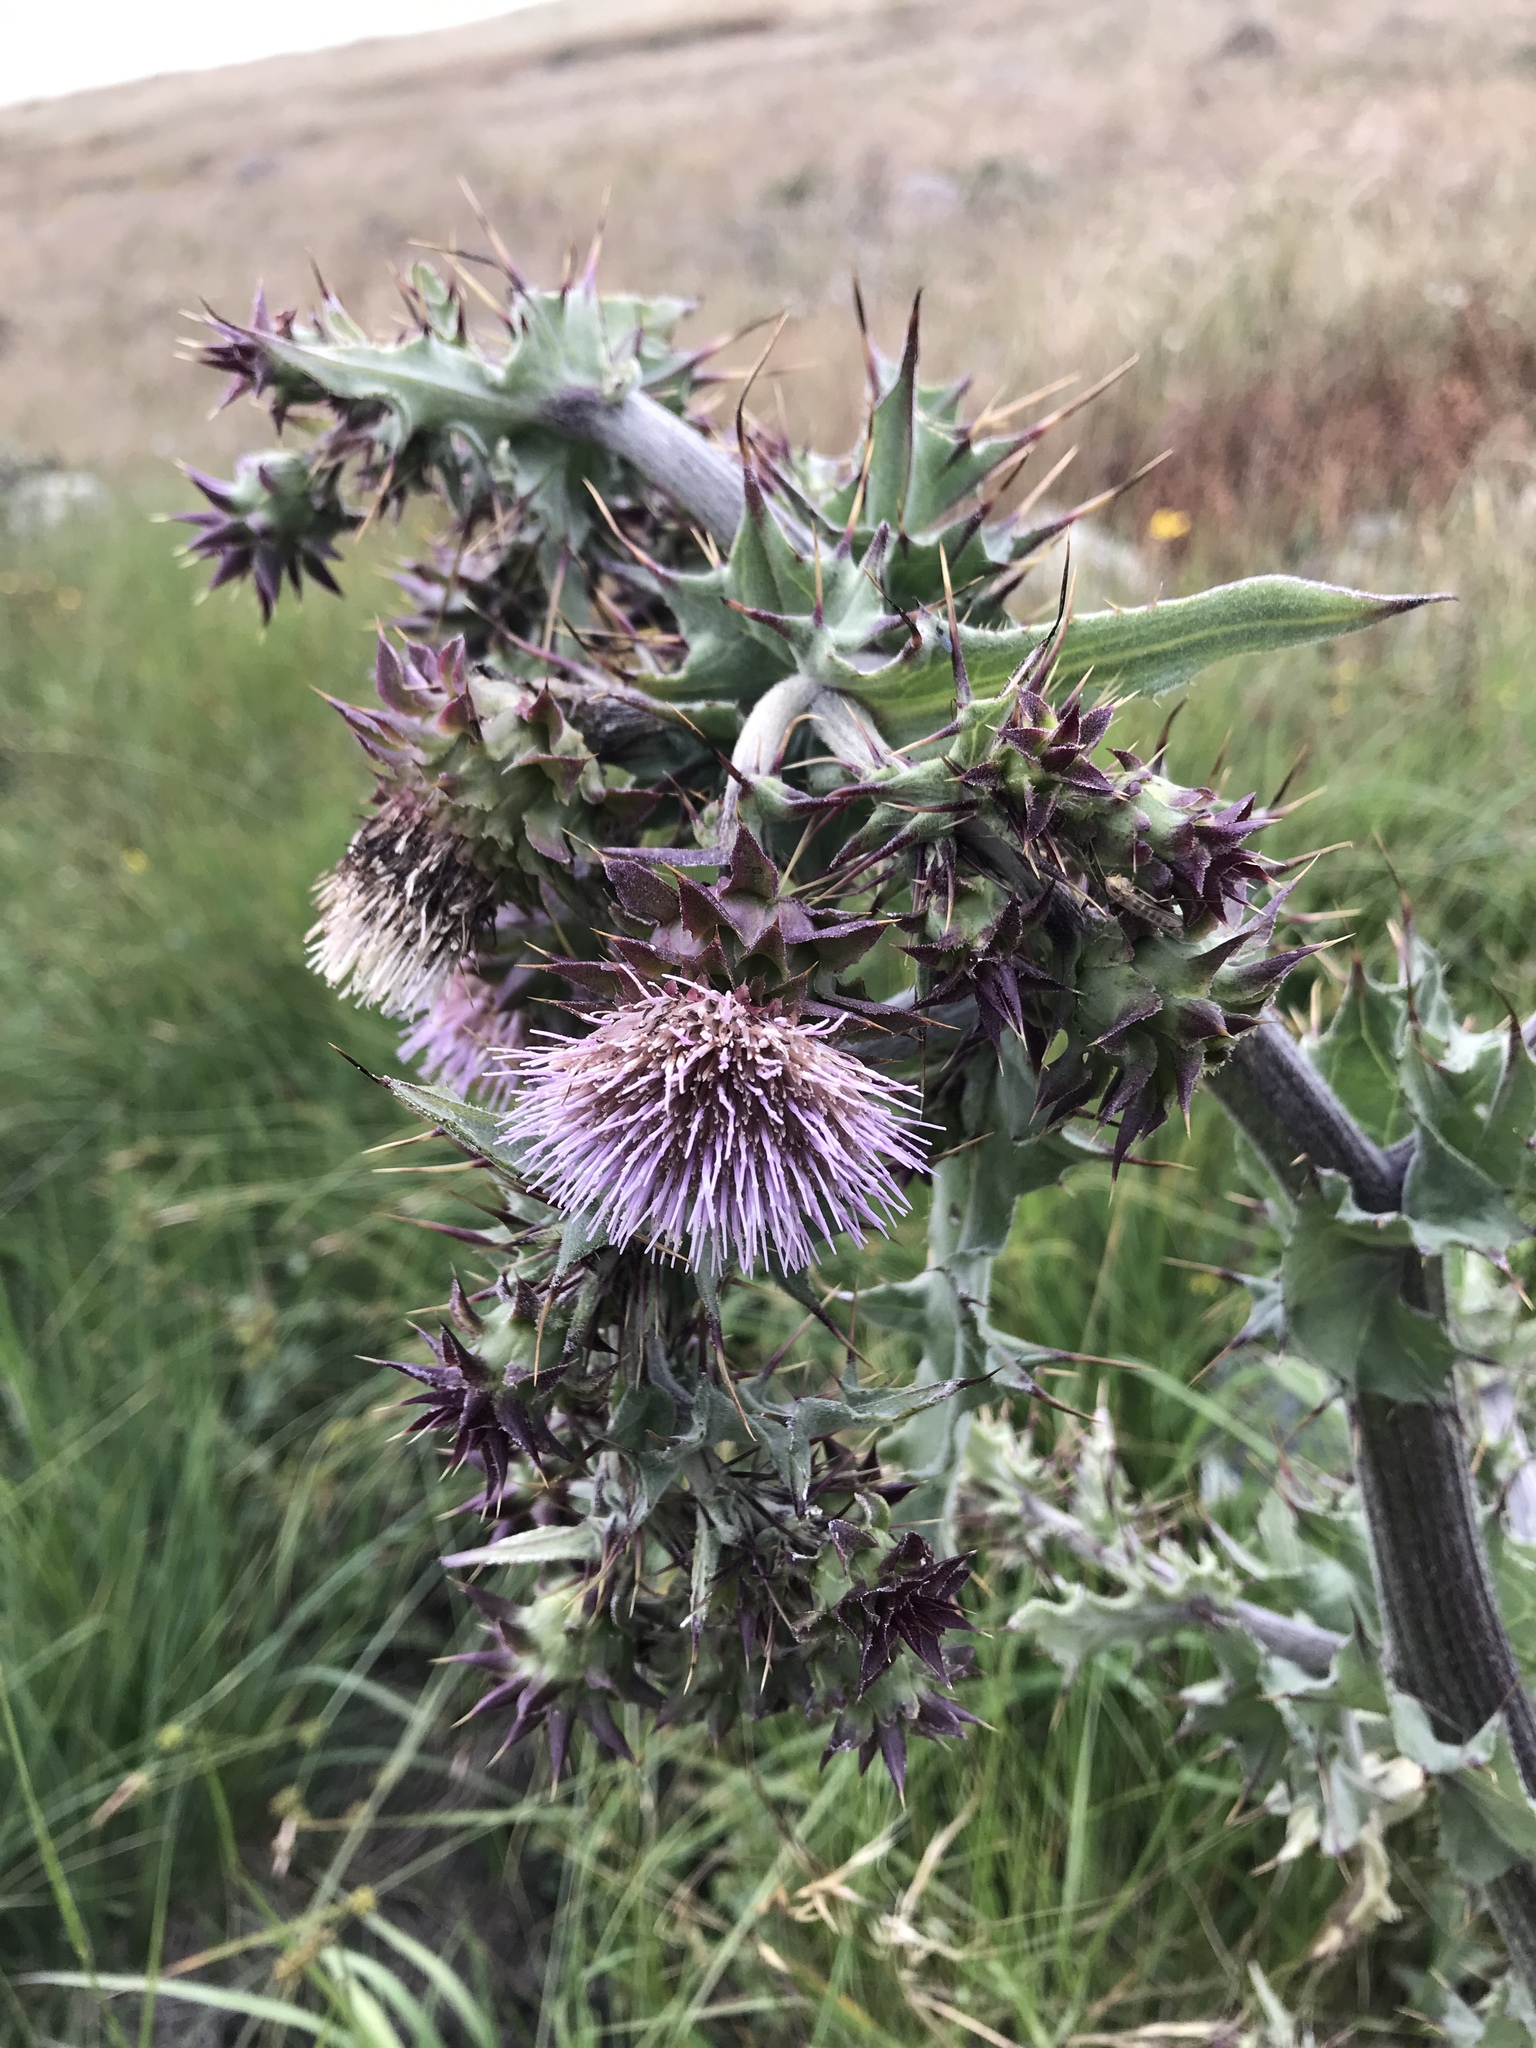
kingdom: Plantae
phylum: Tracheophyta
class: Magnoliopsida
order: Asterales
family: Asteraceae
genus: Cirsium
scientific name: Cirsium fontinale
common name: Fountain thistle
